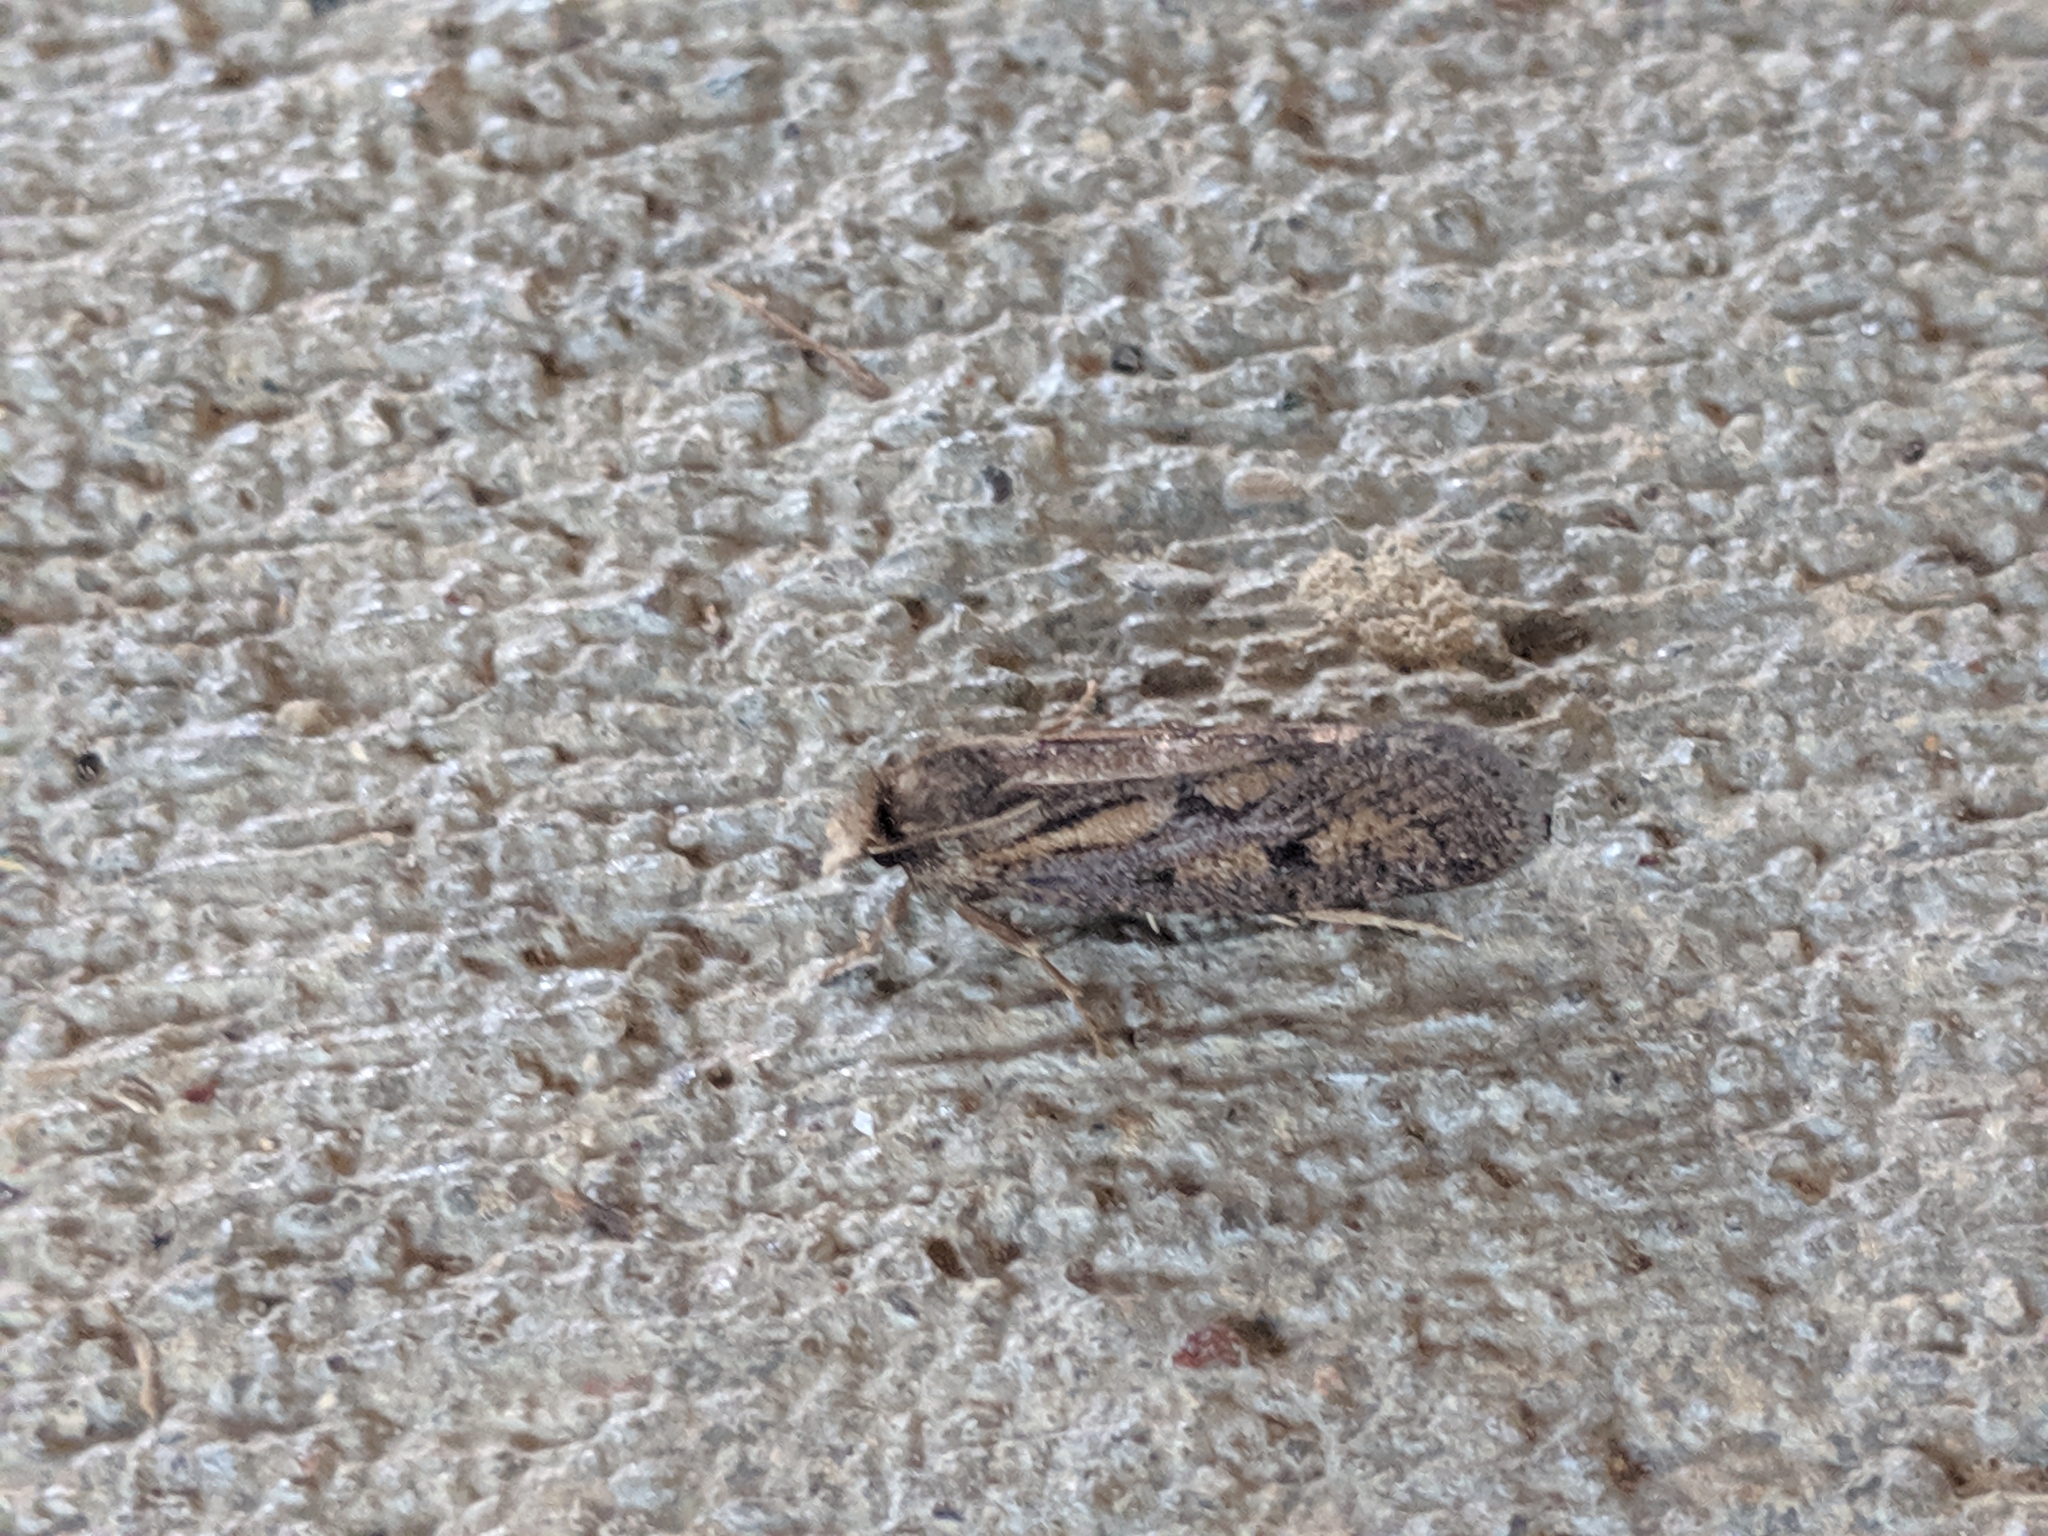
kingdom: Animalia
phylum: Arthropoda
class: Insecta
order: Lepidoptera
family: Tineidae
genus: Acrolophus
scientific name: Acrolophus popeanella
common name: Clemens' grass tubeworm moth
